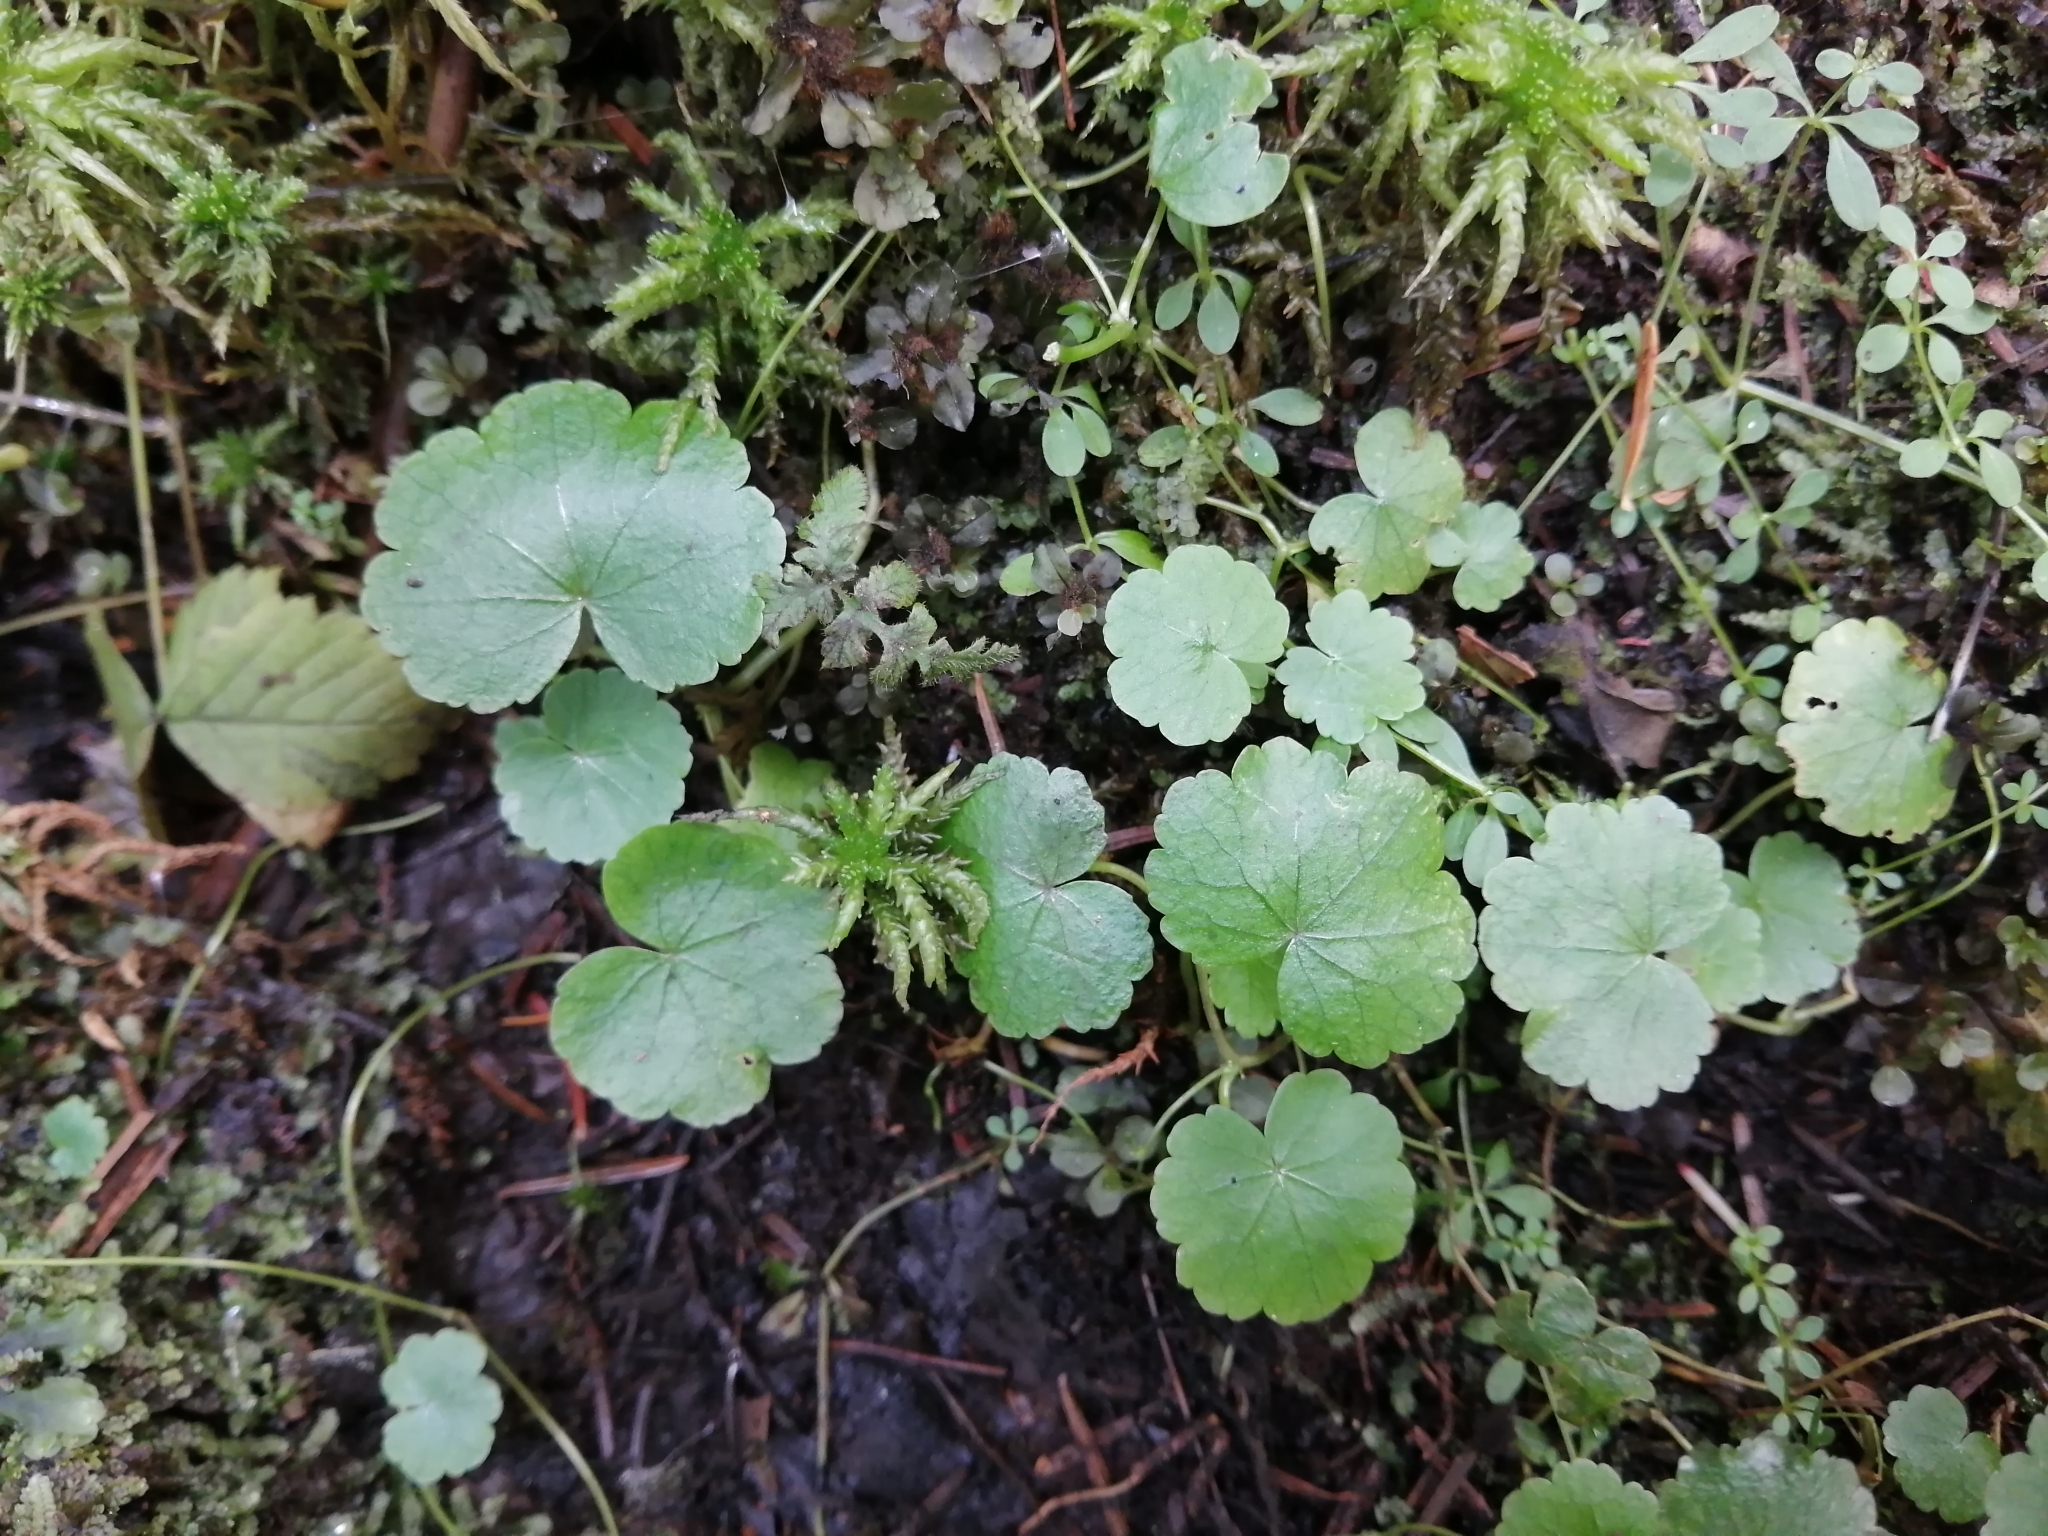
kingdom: Plantae
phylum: Tracheophyta
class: Magnoliopsida
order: Apiales
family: Araliaceae
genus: Hydrocotyle
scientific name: Hydrocotyle americana
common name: American water-pennywort
